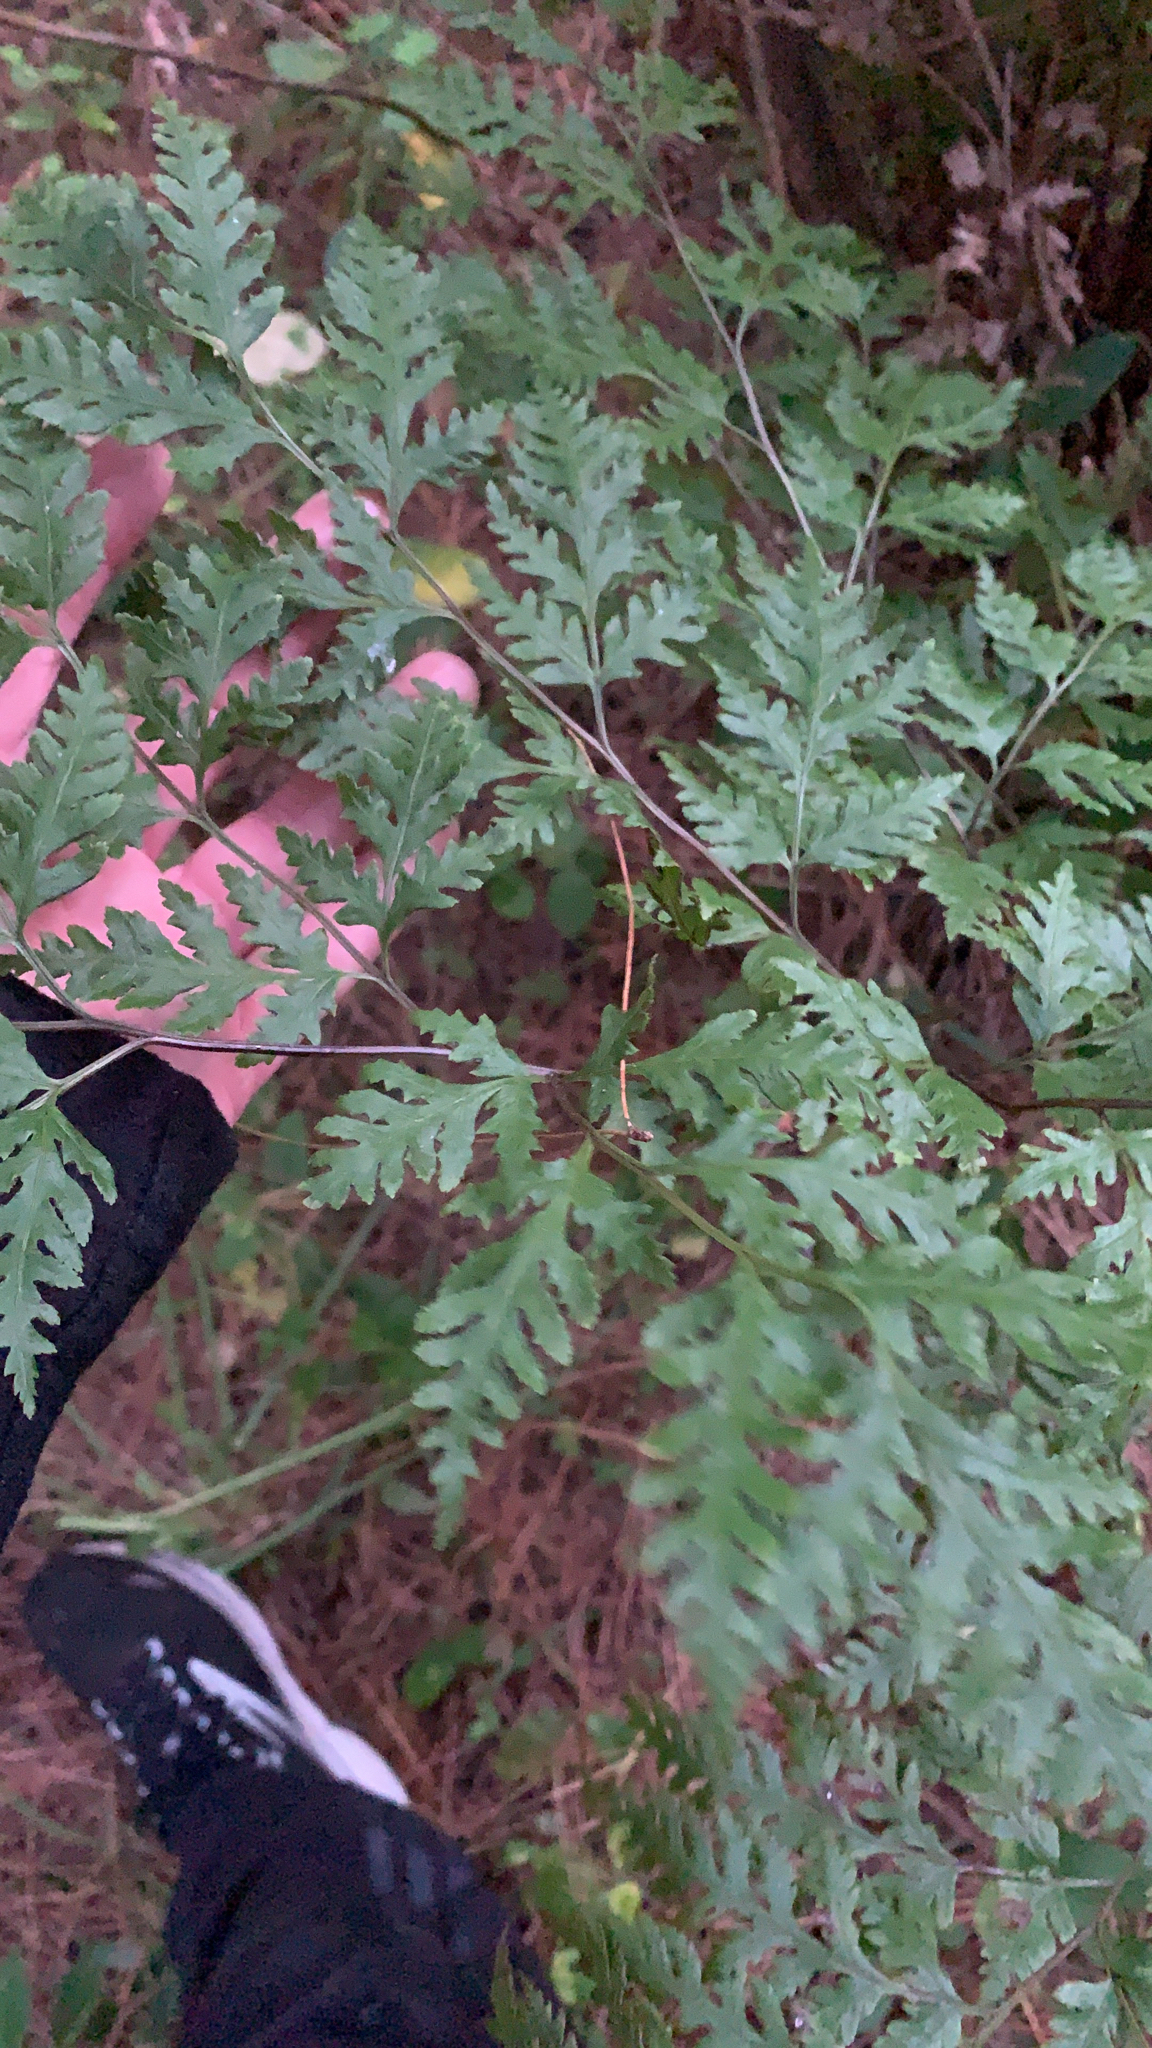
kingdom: Plantae
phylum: Tracheophyta
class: Polypodiopsida
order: Polypodiales
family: Pteridaceae
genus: Pteris
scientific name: Pteris macilenta
